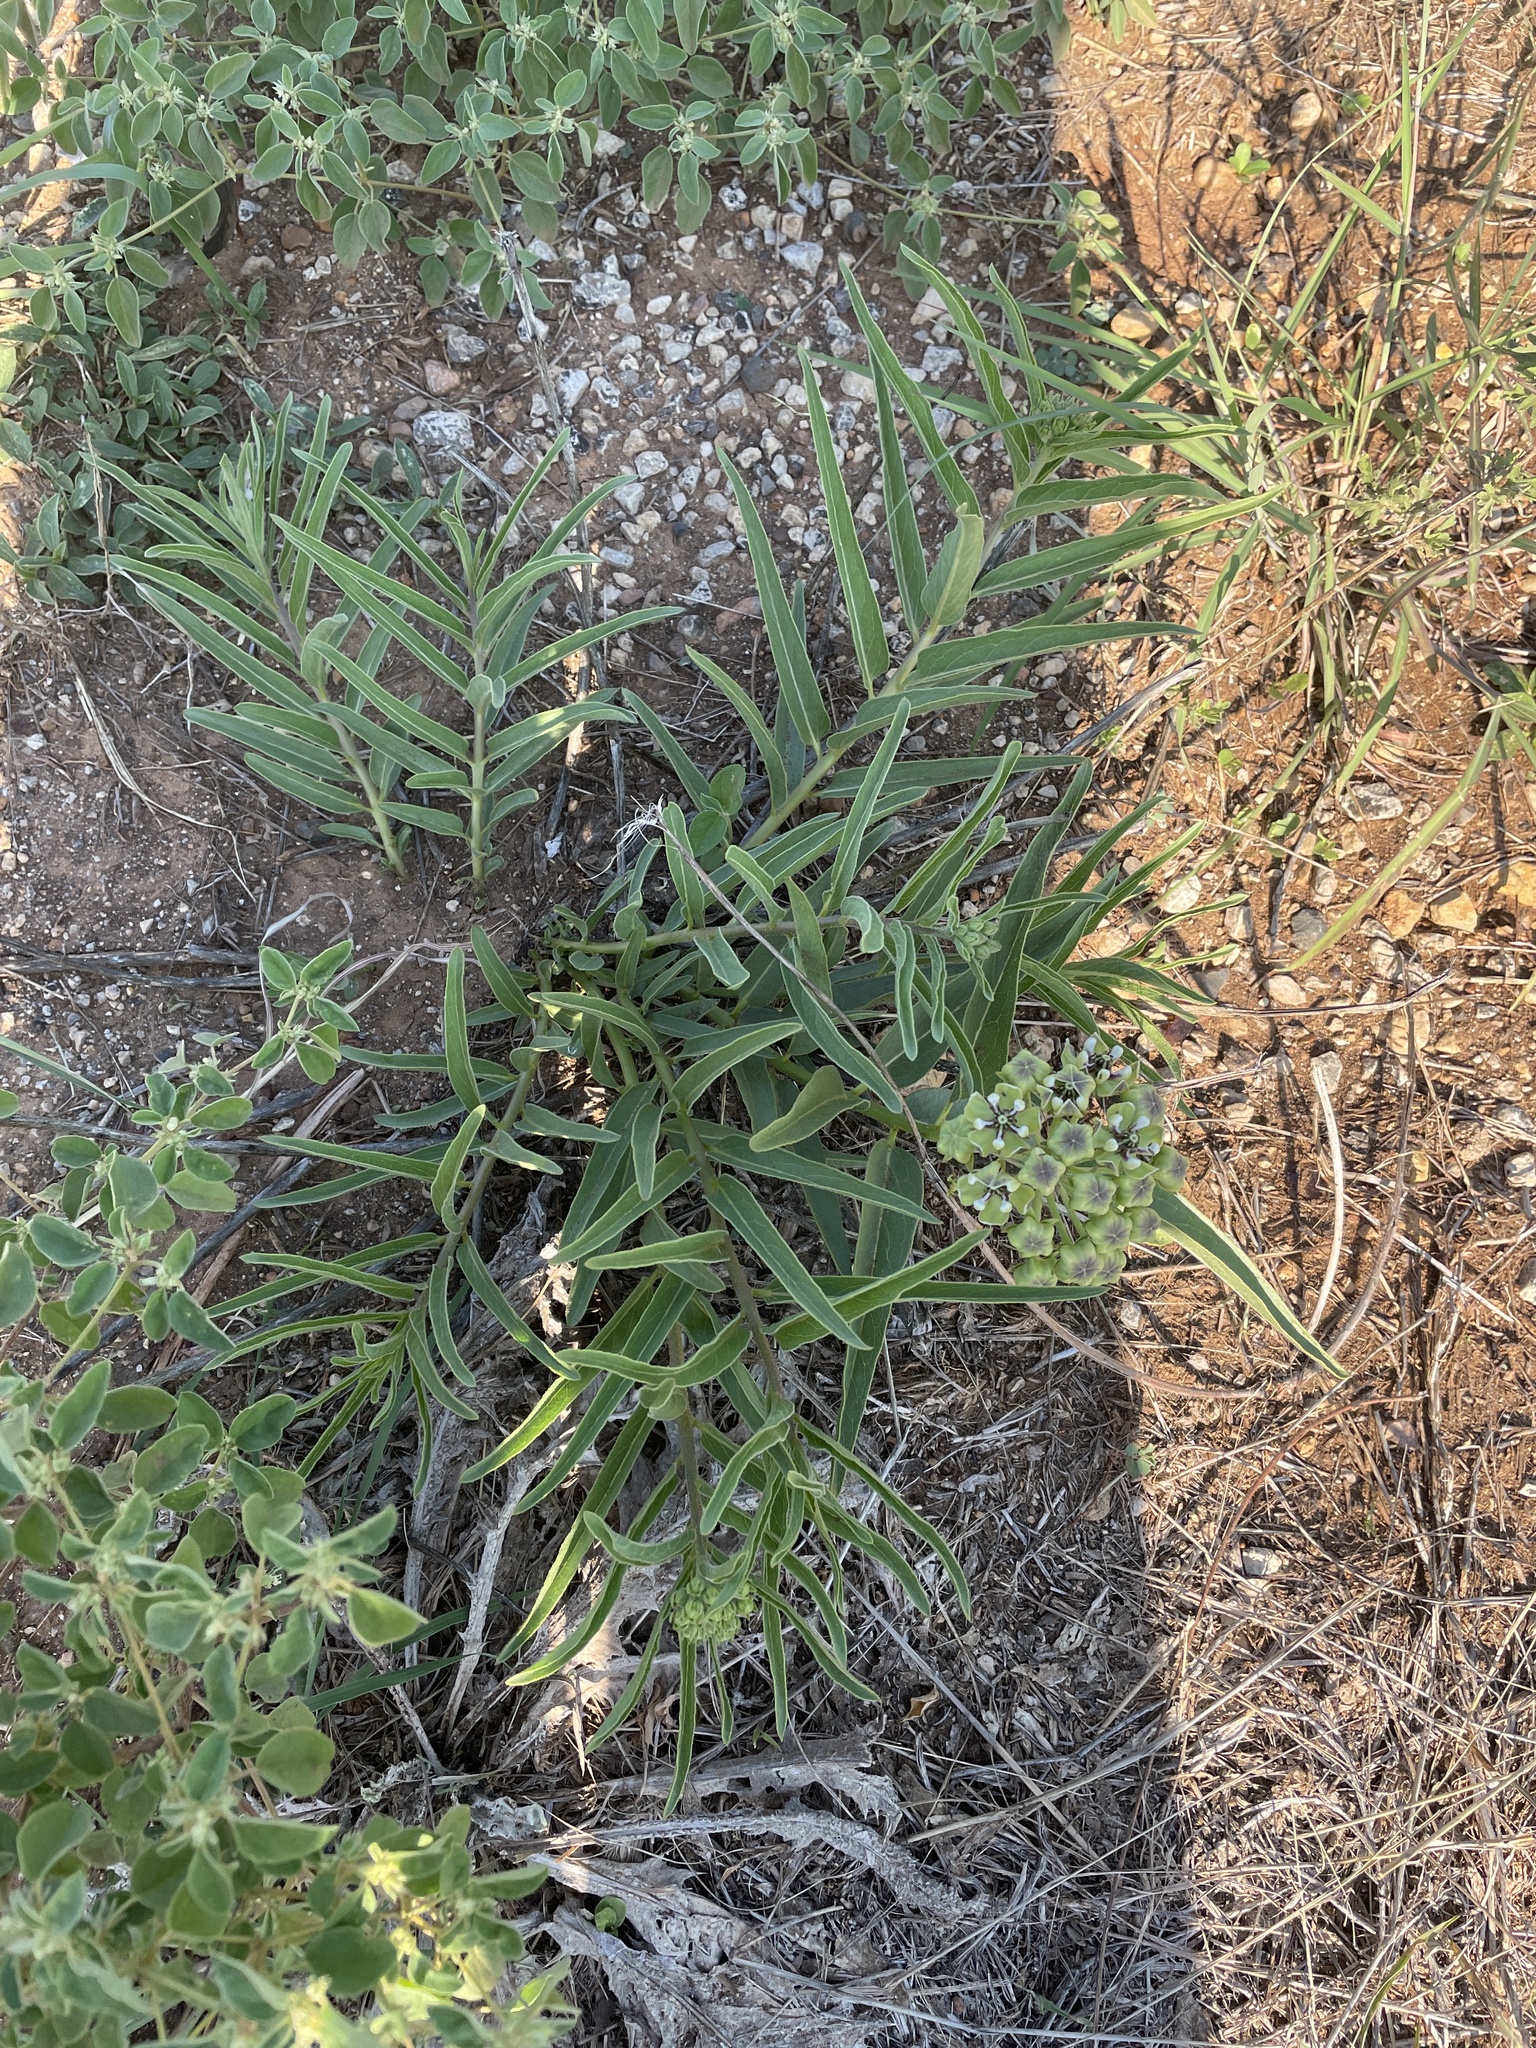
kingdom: Plantae
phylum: Tracheophyta
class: Magnoliopsida
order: Gentianales
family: Apocynaceae
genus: Asclepias
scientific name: Asclepias asperula
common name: Antelope horns
